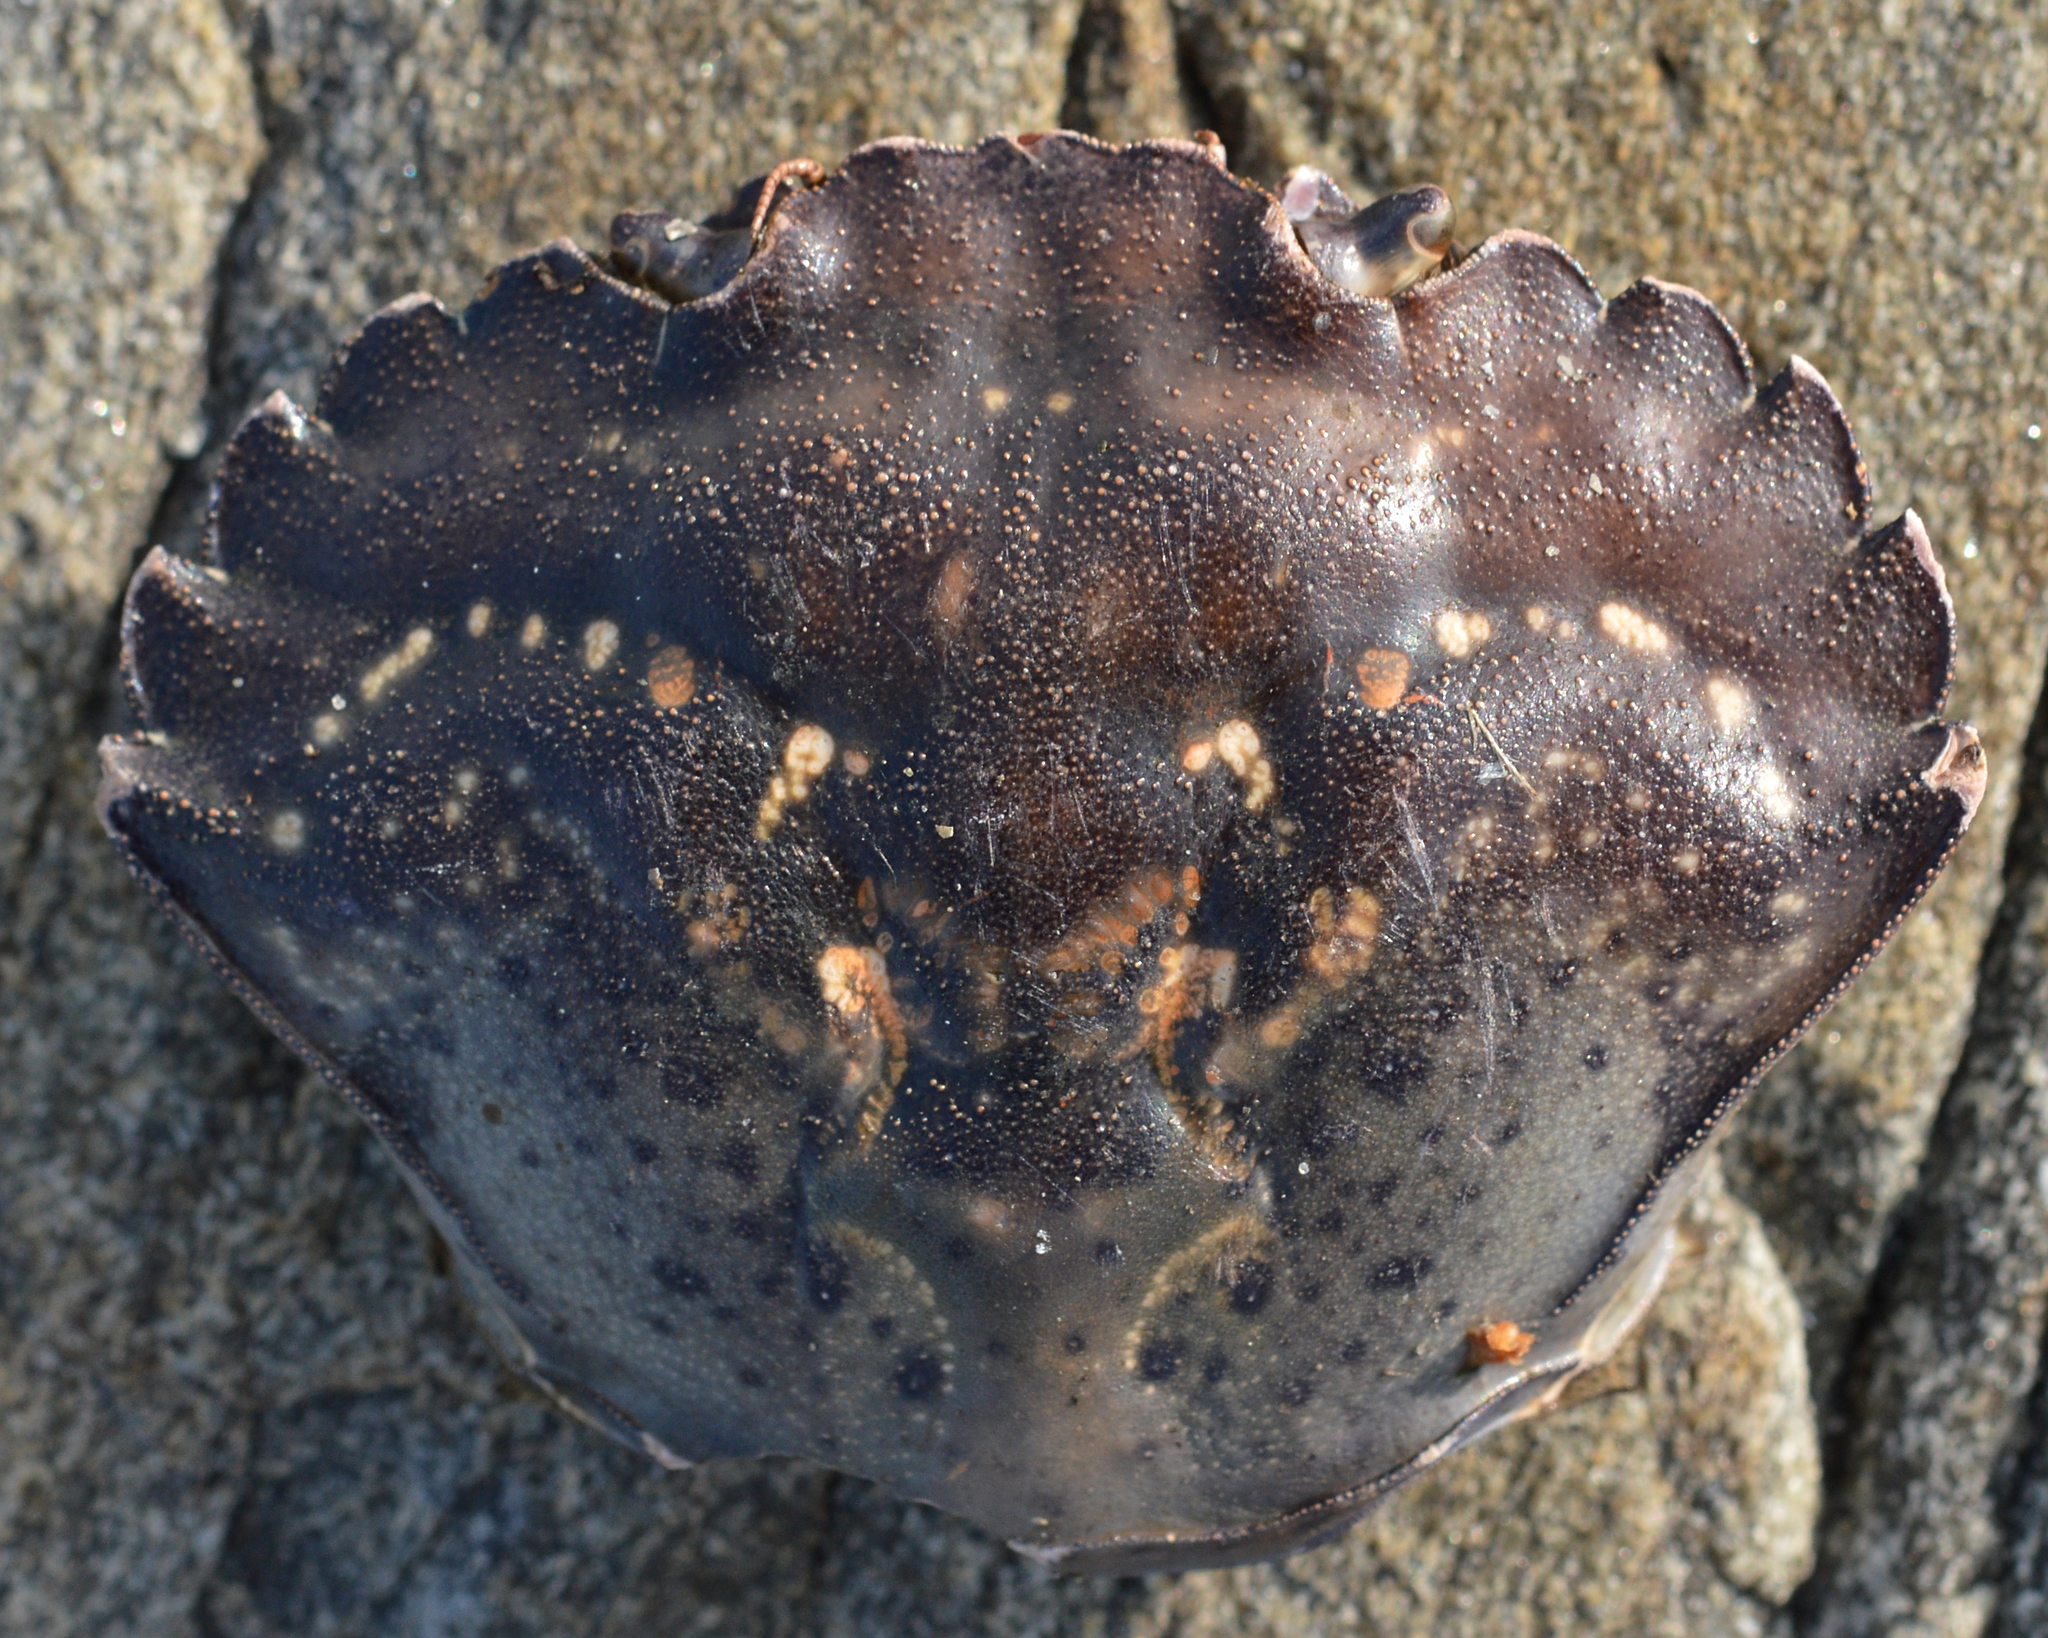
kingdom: Animalia
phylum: Arthropoda
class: Malacostraca
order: Decapoda
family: Carcinidae
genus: Carcinus
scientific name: Carcinus maenas
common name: European green crab
